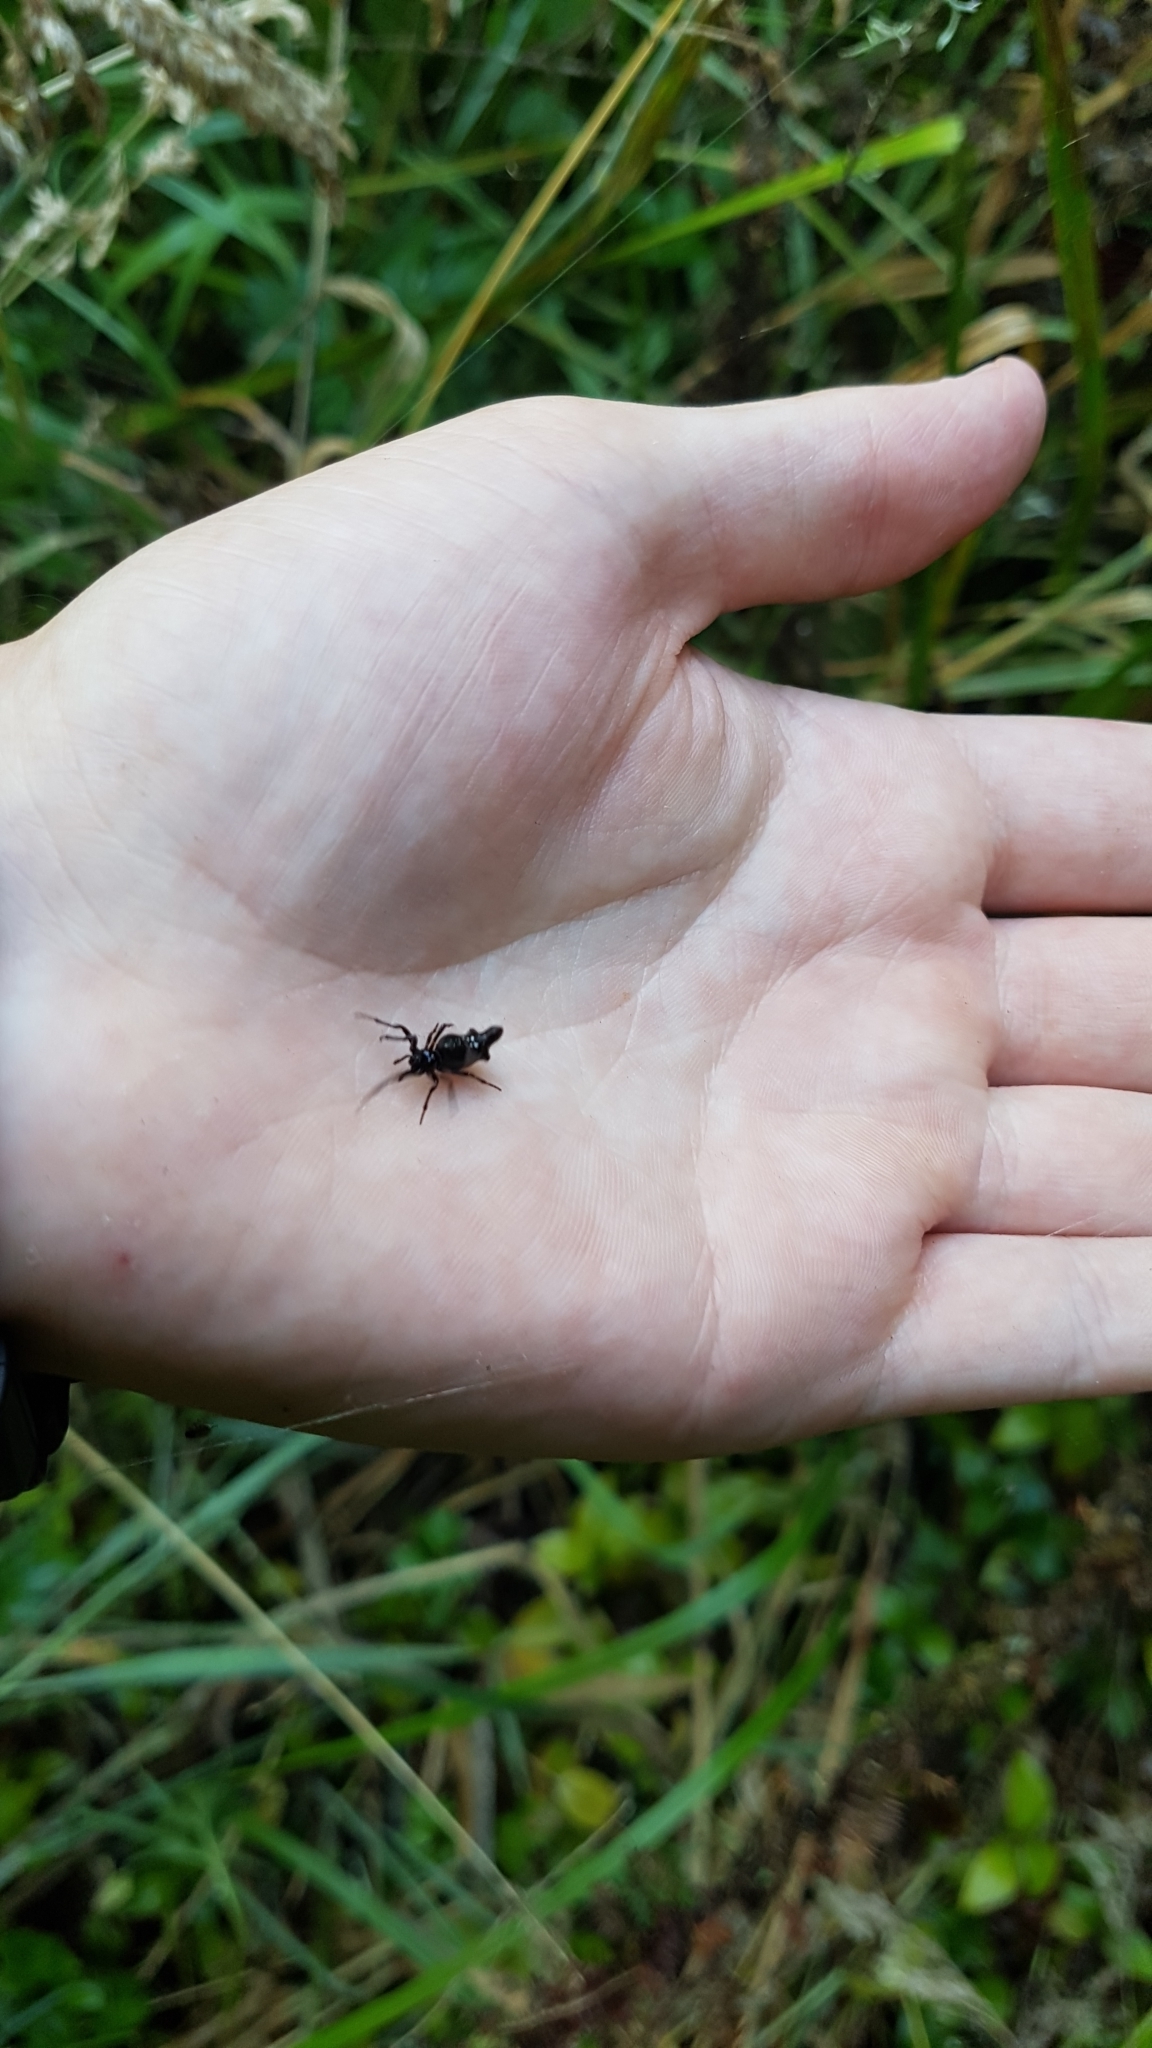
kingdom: Animalia
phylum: Arthropoda
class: Arachnida
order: Araneae
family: Araneidae
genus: Cyclosa
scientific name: Cyclosa trilobata
